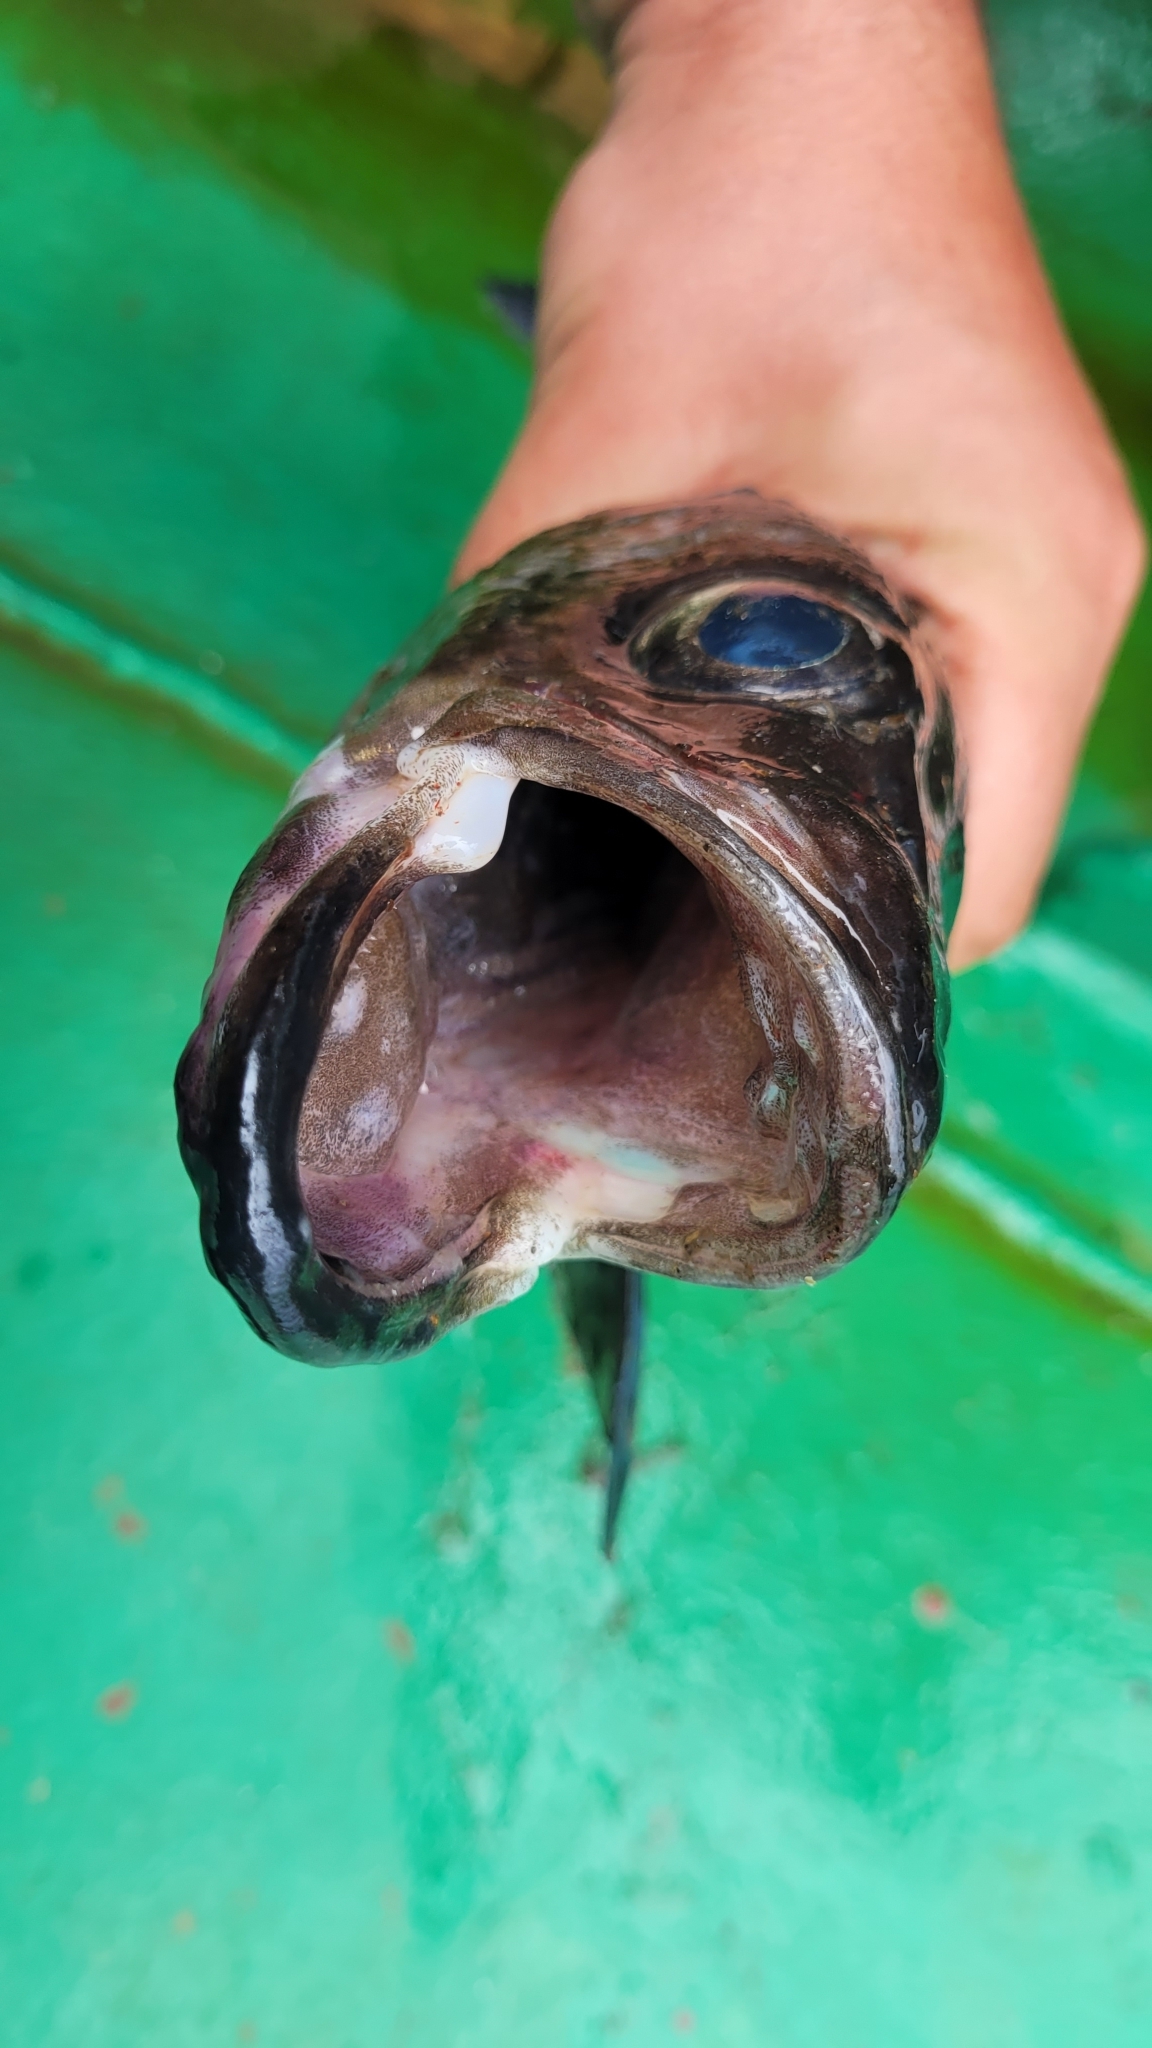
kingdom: Animalia
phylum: Chordata
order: Gadiformes
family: Gadidae
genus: Gadus
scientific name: Gadus chalcogrammus
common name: Walleye pollock
